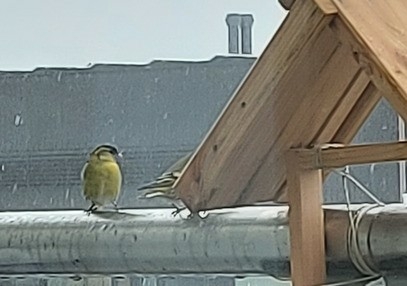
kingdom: Animalia
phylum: Chordata
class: Aves
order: Passeriformes
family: Fringillidae
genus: Spinus
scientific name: Spinus spinus
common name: Eurasian siskin
